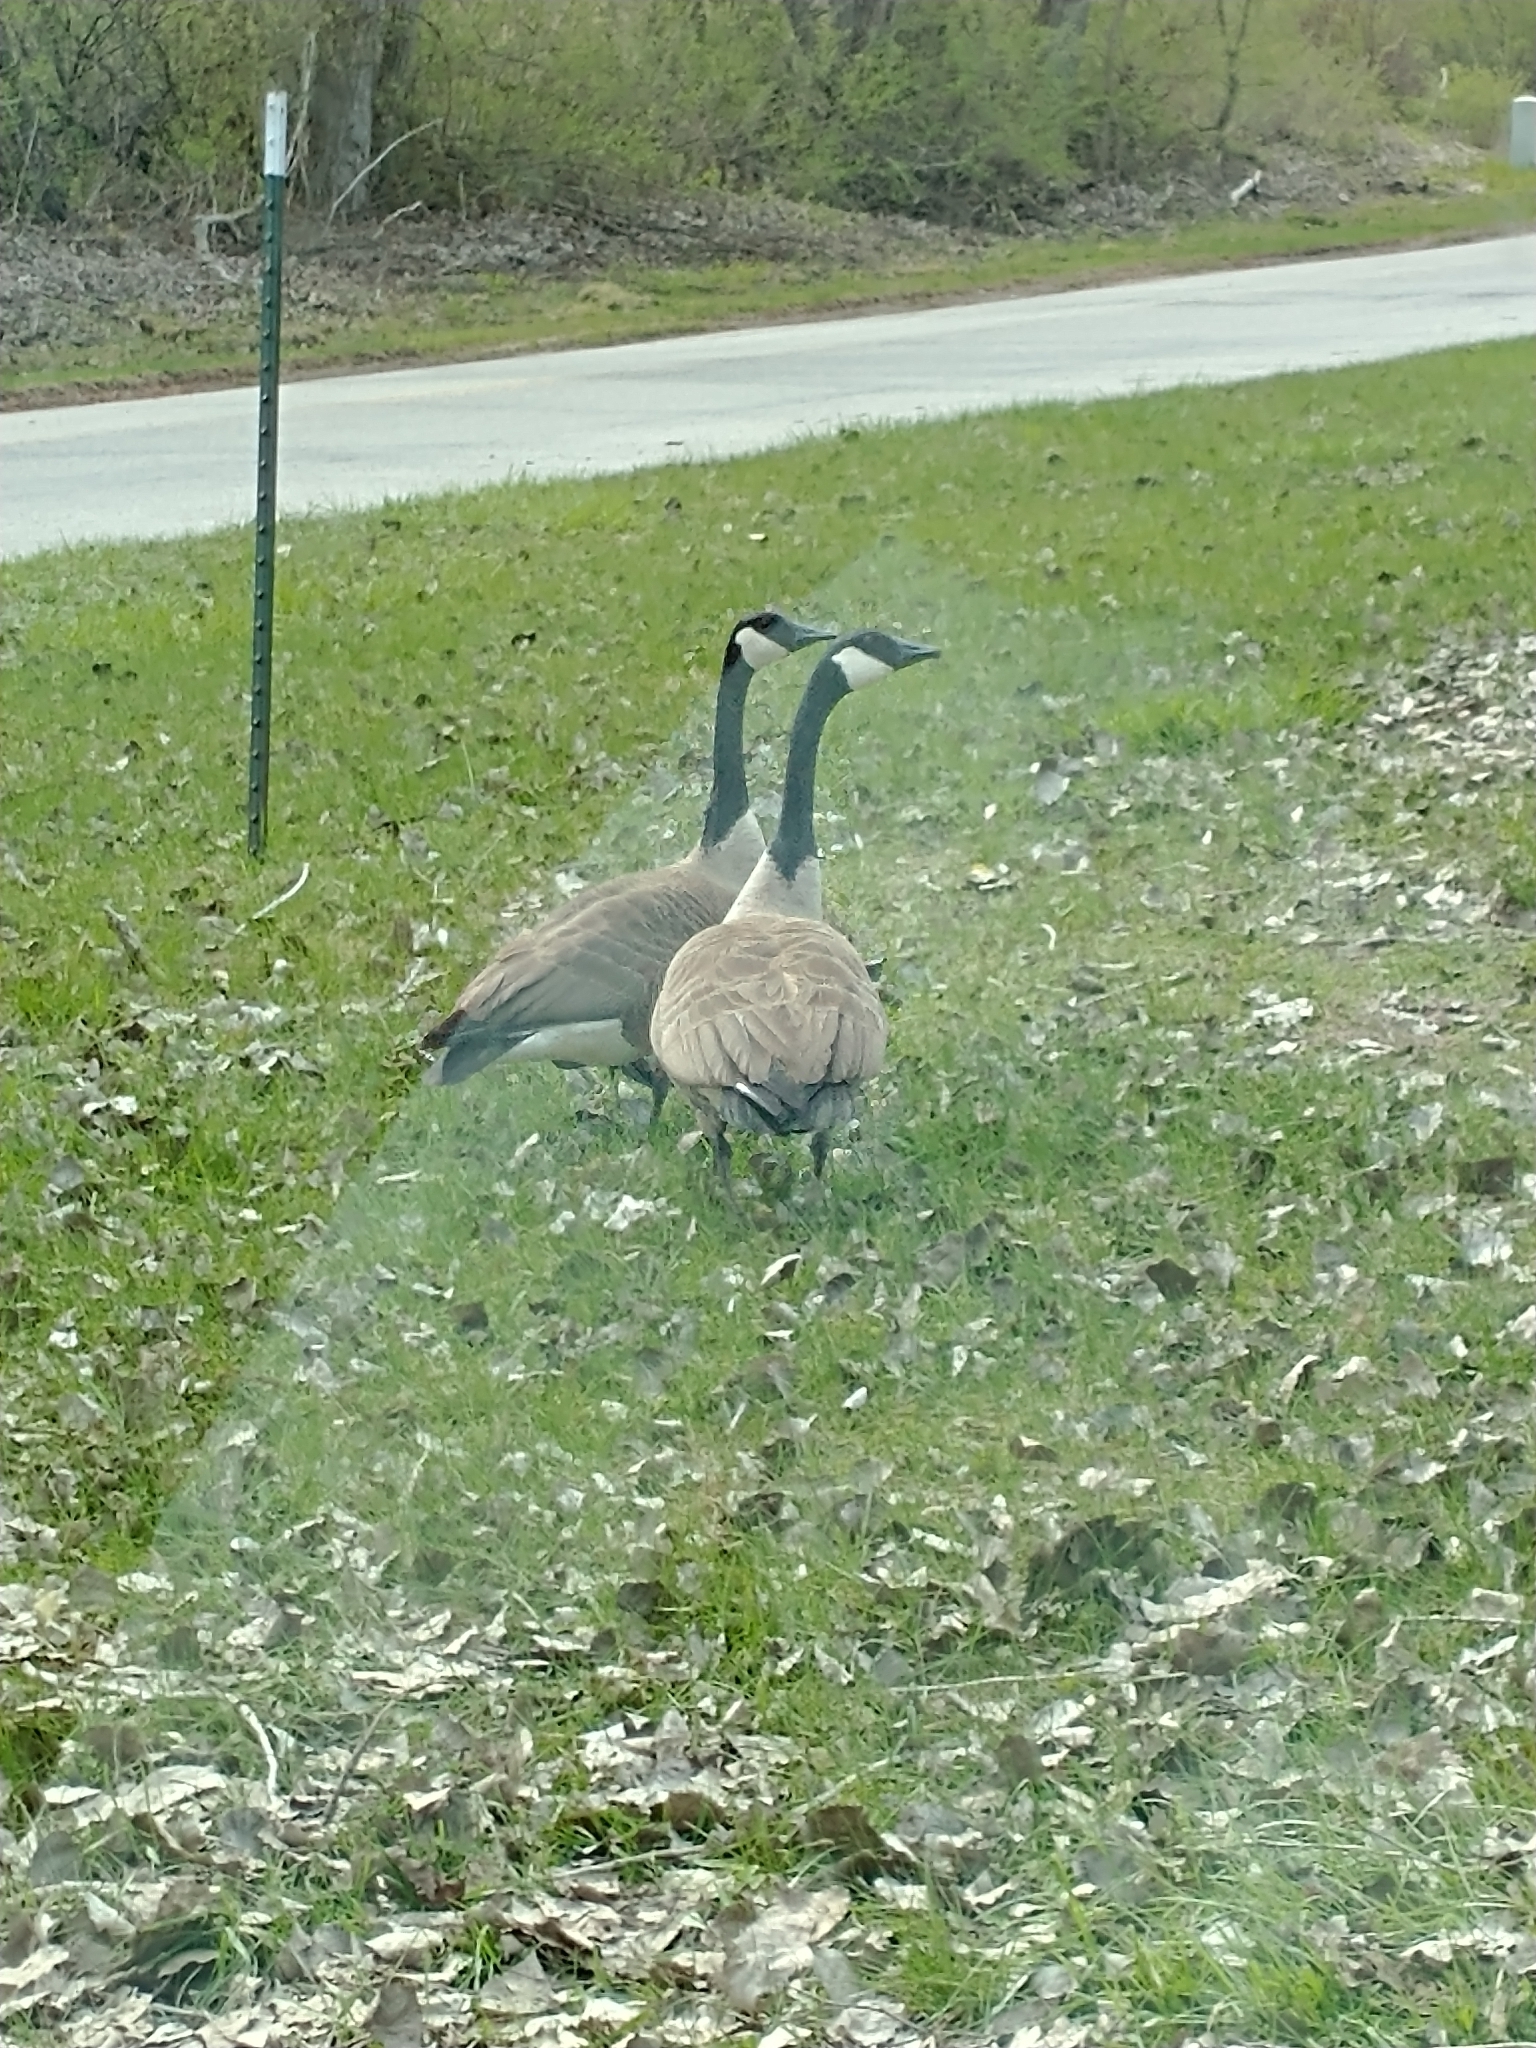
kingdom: Animalia
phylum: Chordata
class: Aves
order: Anseriformes
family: Anatidae
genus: Branta
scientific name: Branta canadensis
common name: Canada goose
